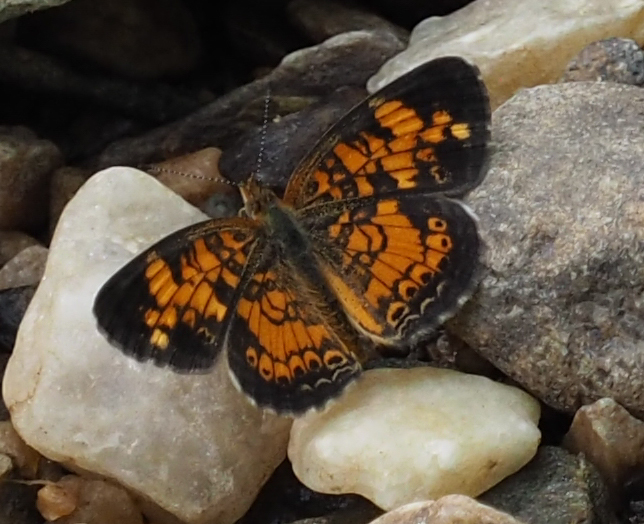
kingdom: Animalia
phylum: Arthropoda
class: Insecta
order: Lepidoptera
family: Nymphalidae
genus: Phyciodes
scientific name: Phyciodes tharos
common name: Pearl crescent
